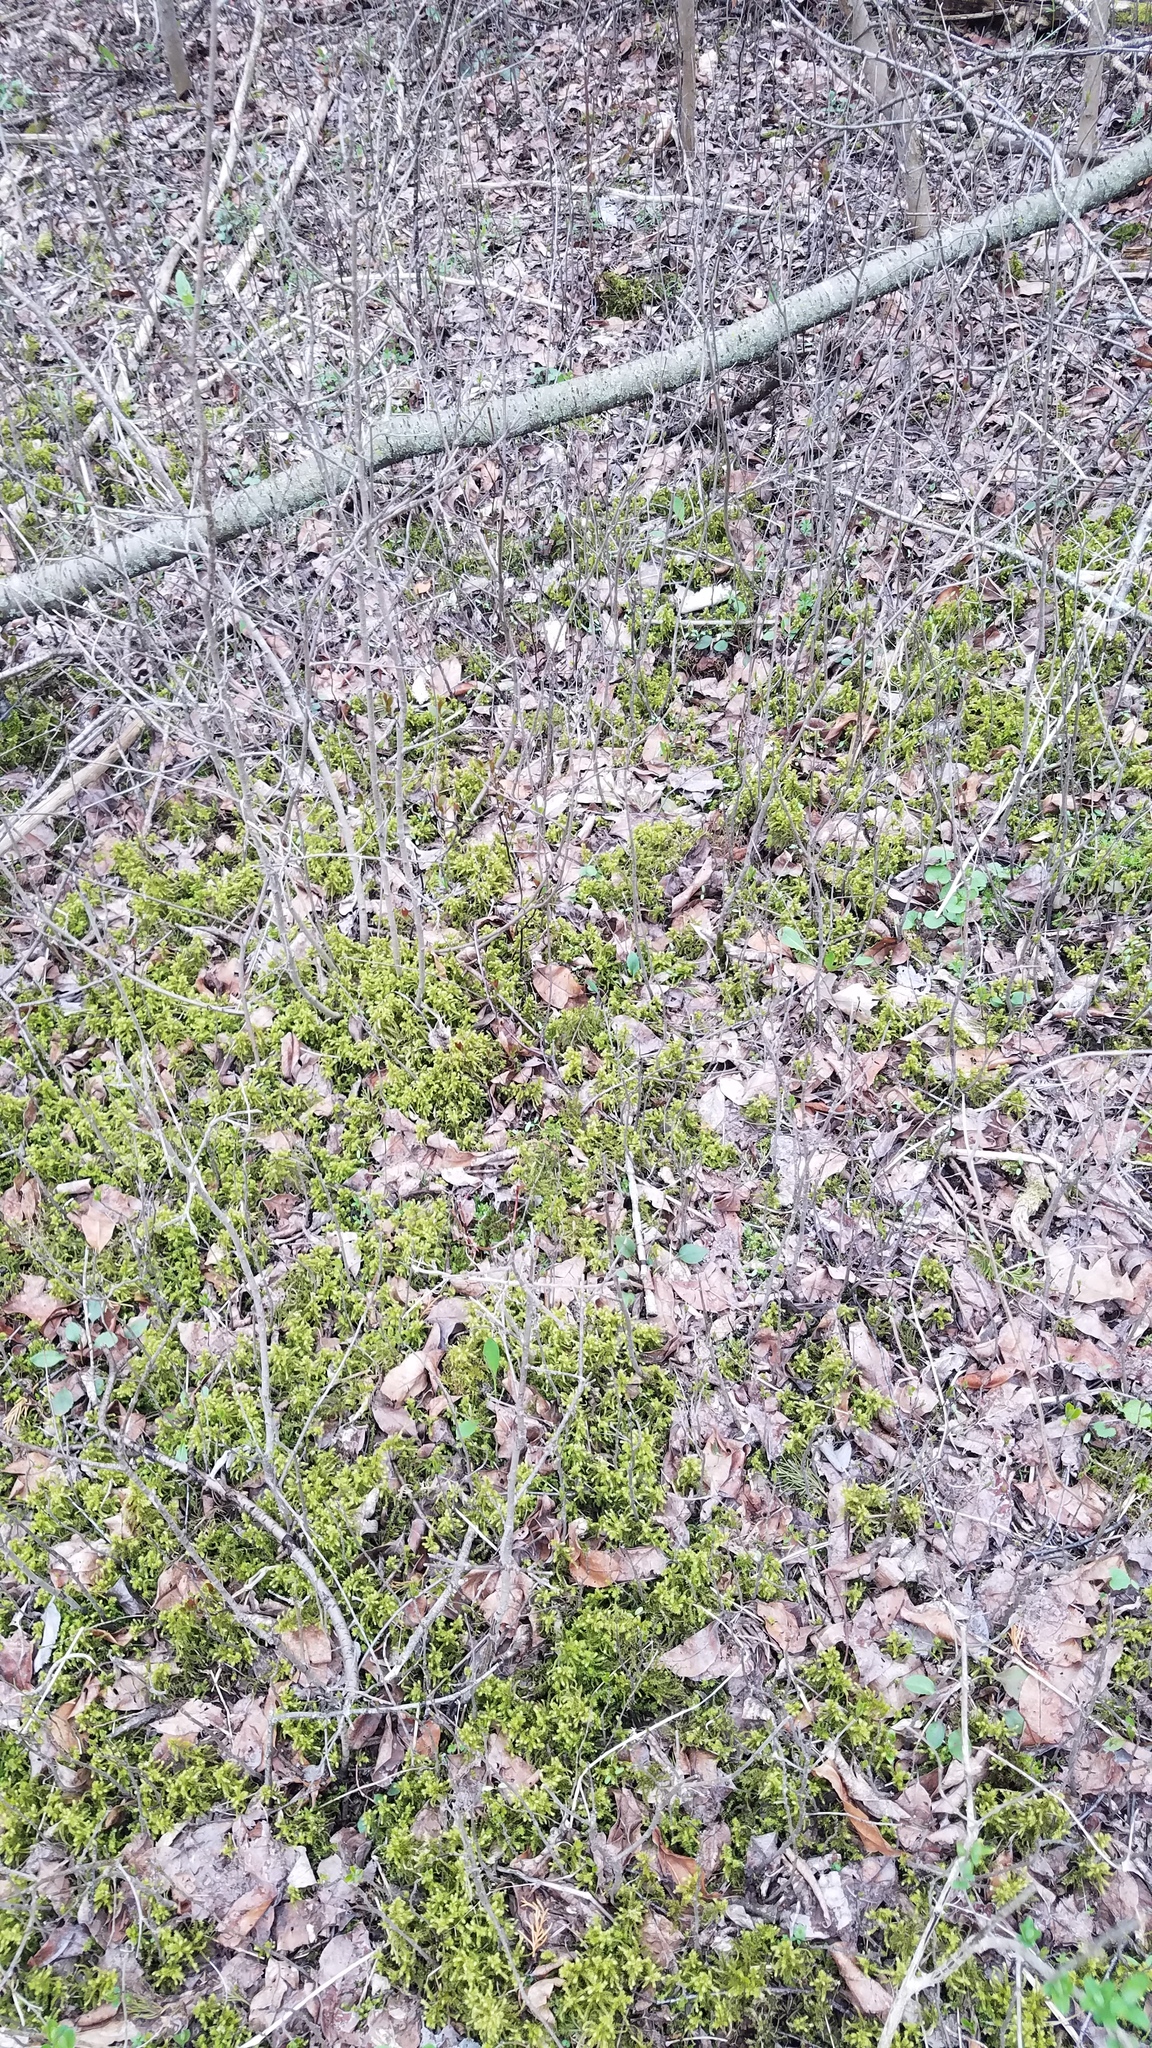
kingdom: Plantae
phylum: Bryophyta
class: Bryopsida
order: Hypnales
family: Hylocomiaceae
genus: Hylocomiadelphus
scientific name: Hylocomiadelphus triquetrus
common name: Rough goose neck moss
